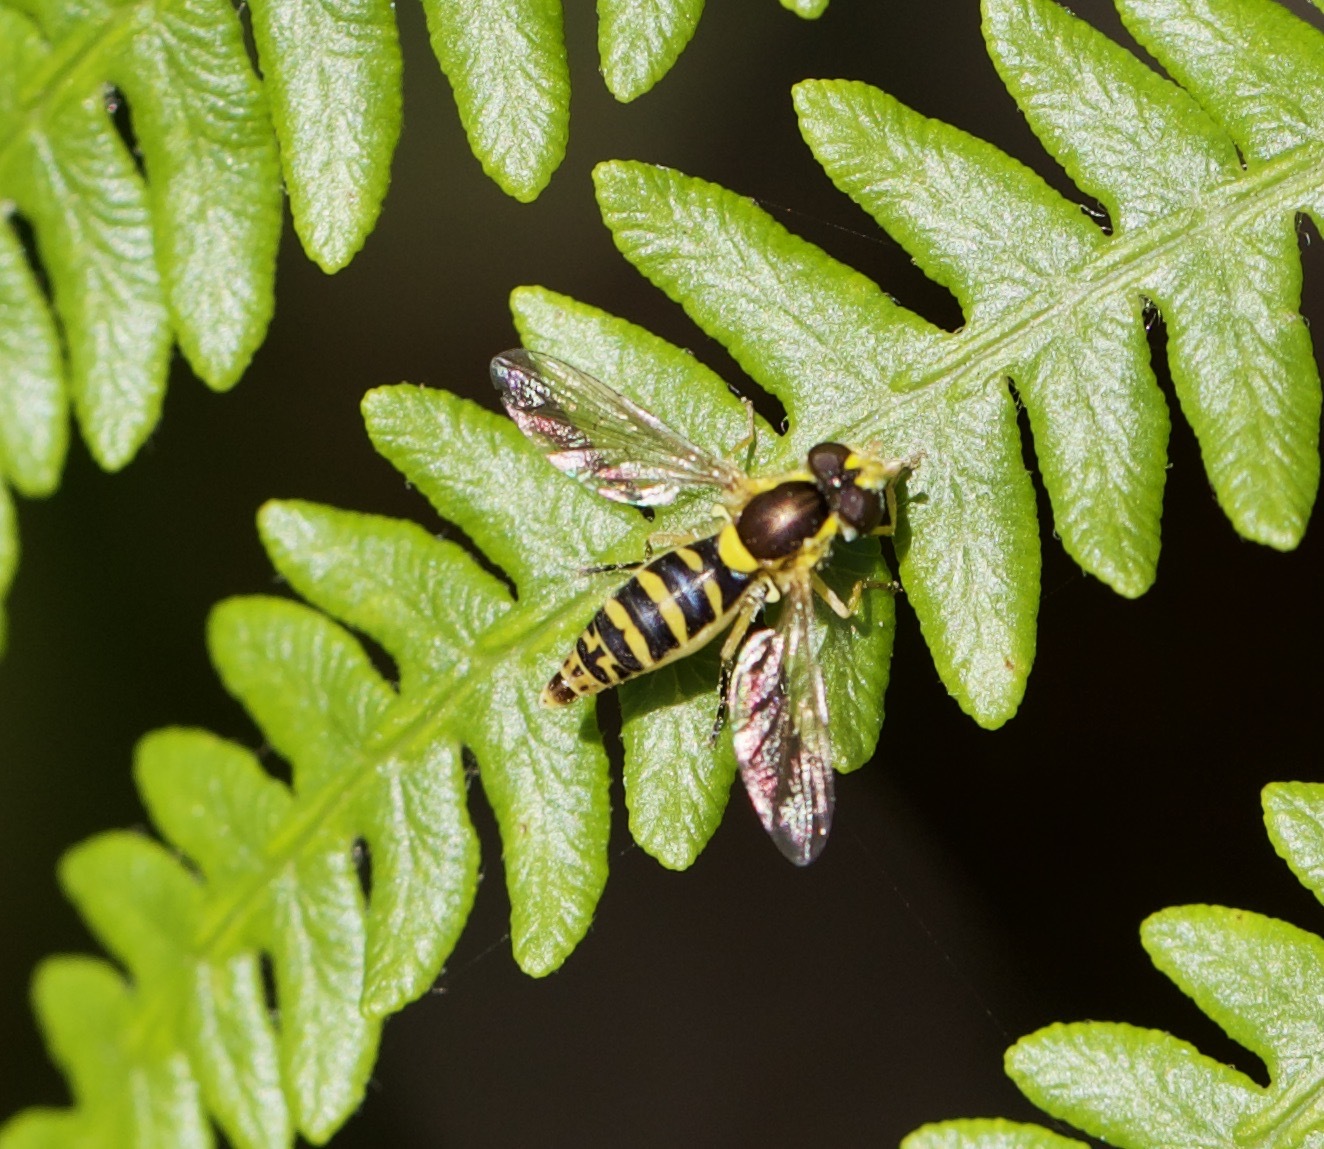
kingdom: Animalia
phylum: Arthropoda
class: Insecta
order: Diptera
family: Syrphidae
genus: Sphaerophoria
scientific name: Sphaerophoria
